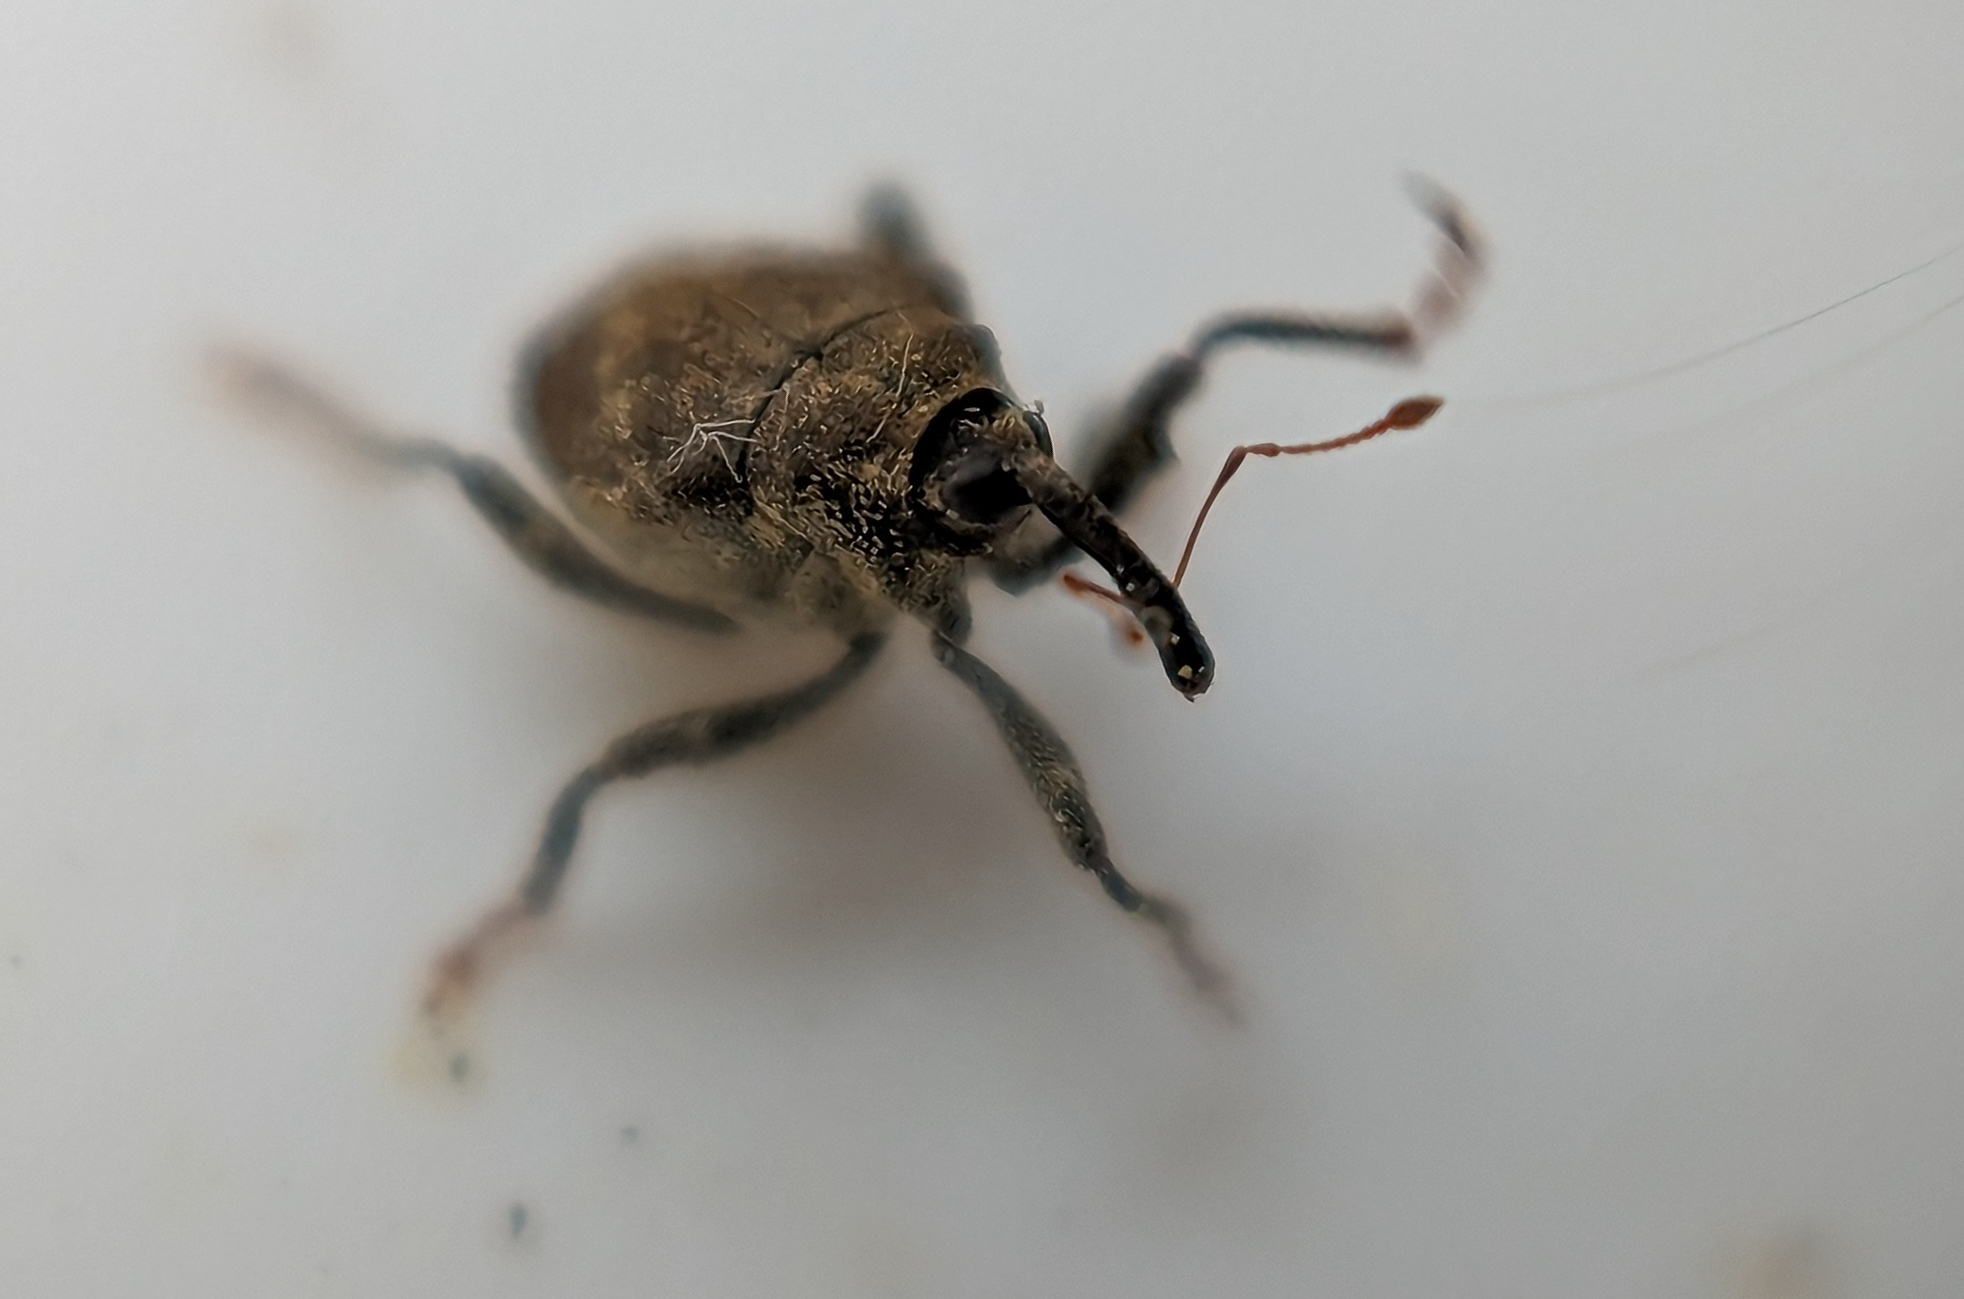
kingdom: Animalia
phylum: Arthropoda
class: Insecta
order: Coleoptera
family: Curculionidae
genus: Parethelcus
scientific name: Parethelcus pollinarius
